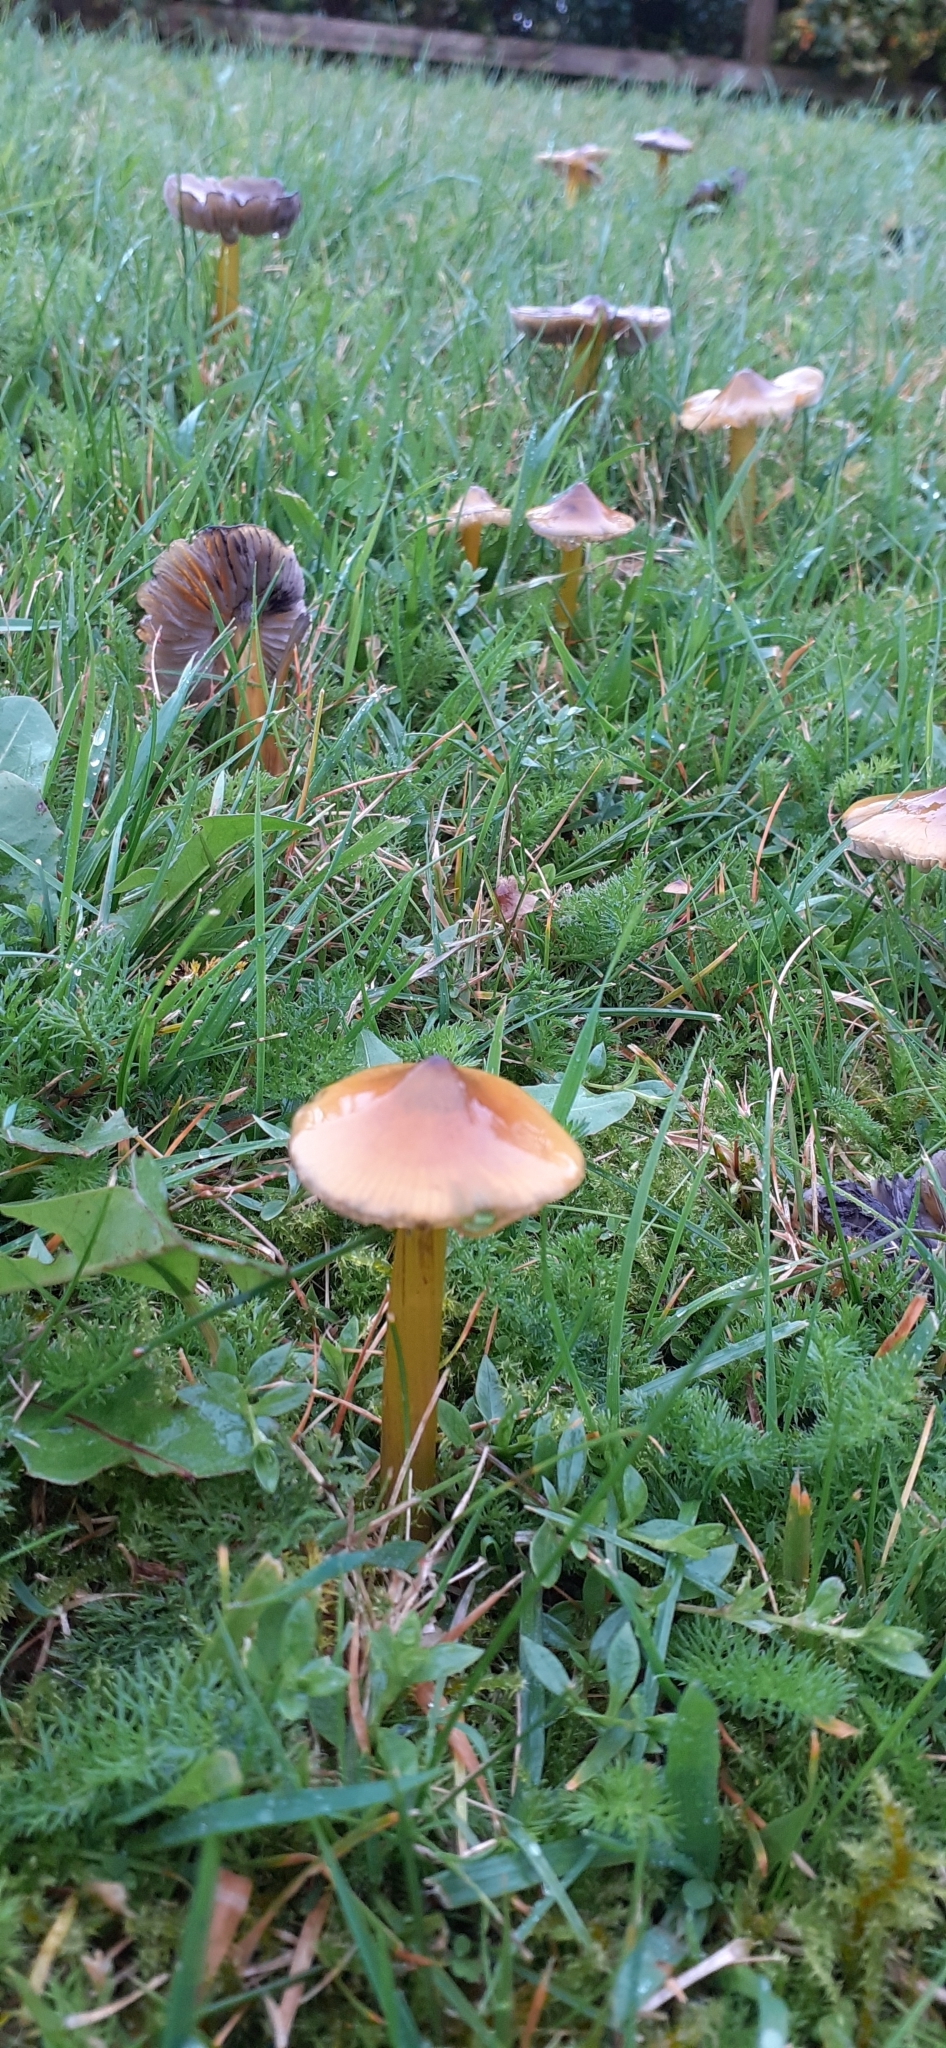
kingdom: Fungi
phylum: Basidiomycota
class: Agaricomycetes
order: Agaricales
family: Hygrophoraceae
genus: Hygrocybe
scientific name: Hygrocybe conica
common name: Blackening wax-cap
